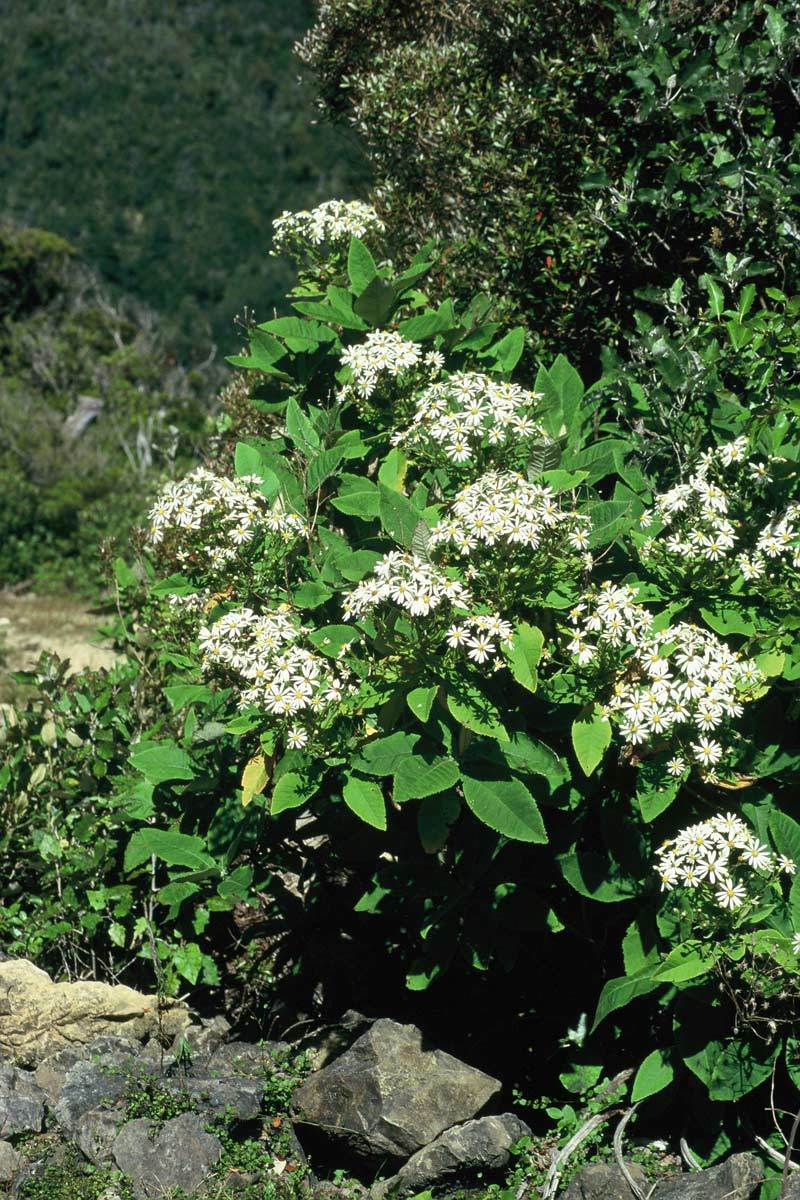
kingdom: Plantae
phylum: Tracheophyta
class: Magnoliopsida
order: Asterales
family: Asteraceae
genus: Brachyglottis
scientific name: Brachyglottis hectorii
